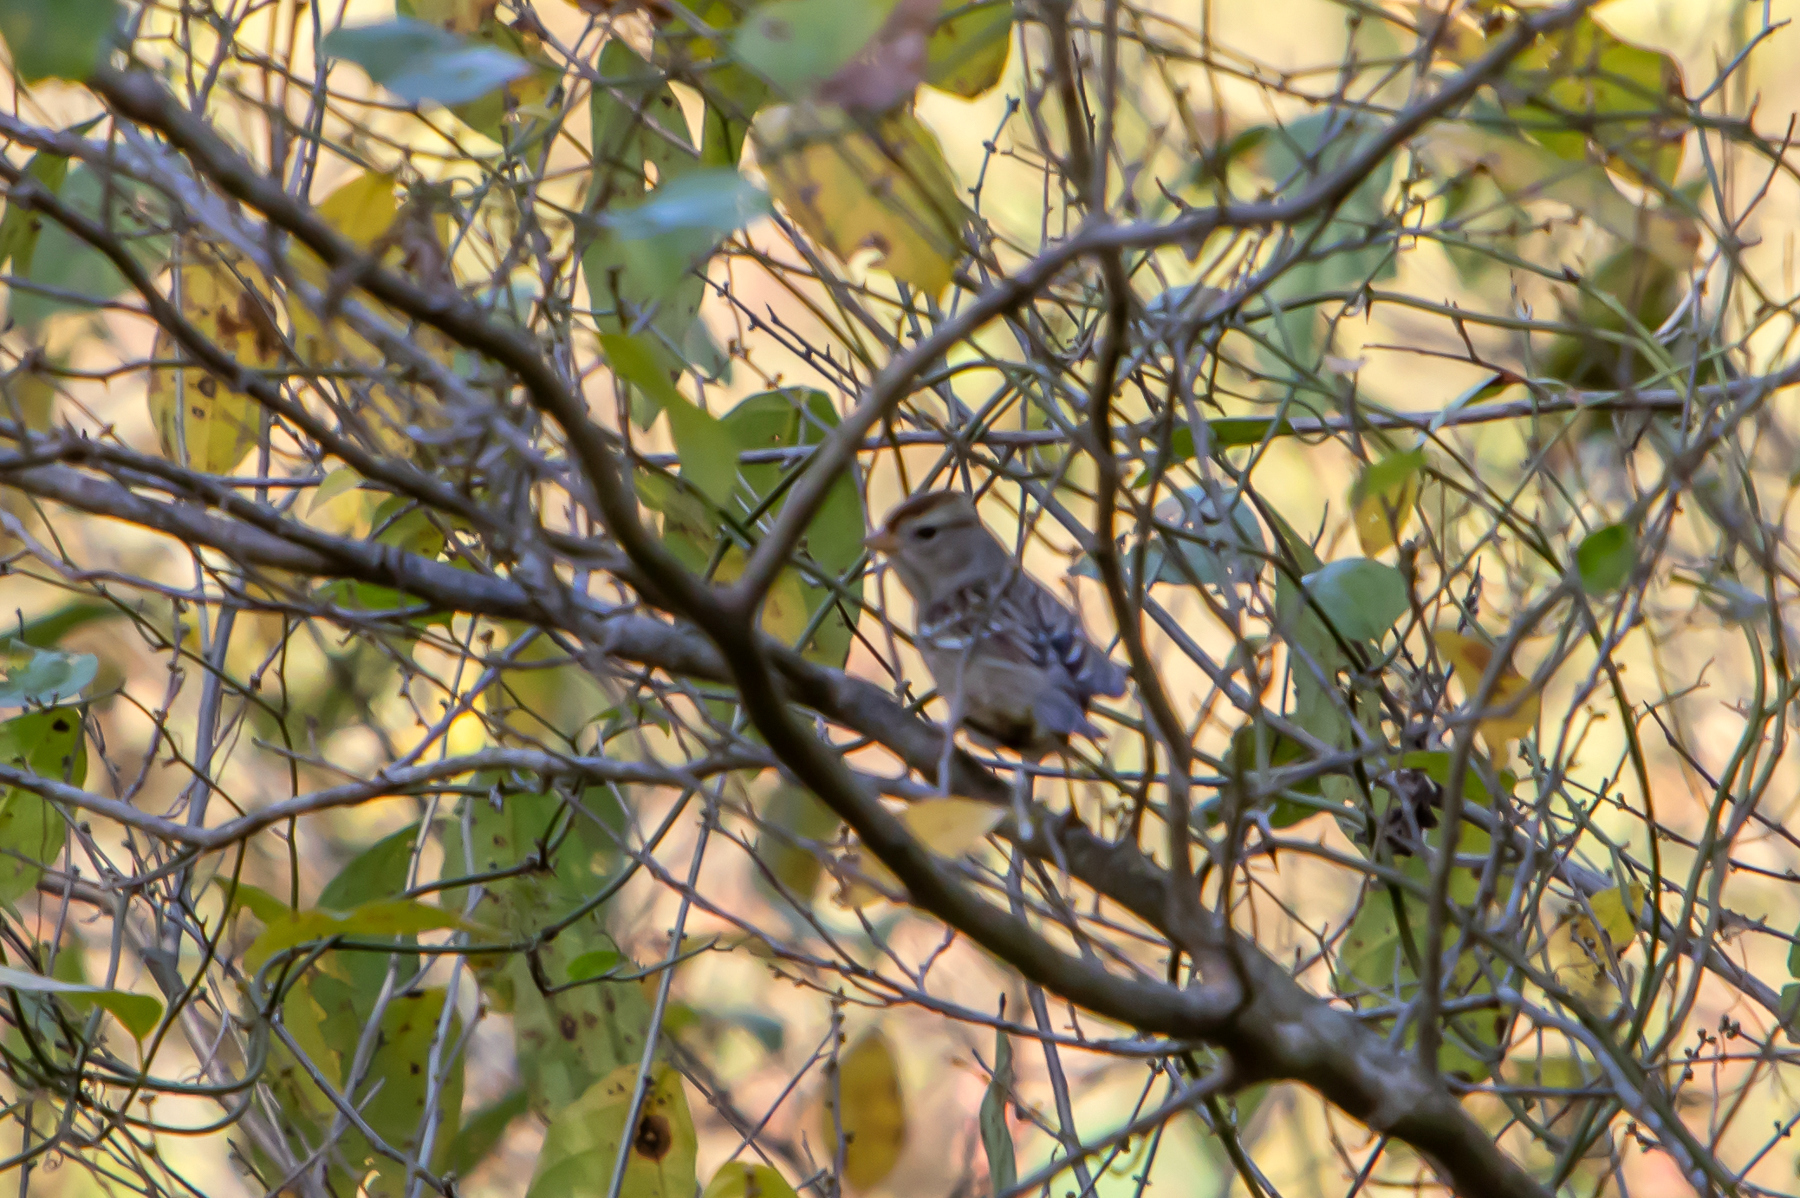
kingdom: Animalia
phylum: Chordata
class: Aves
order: Passeriformes
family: Passerellidae
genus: Zonotrichia
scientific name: Zonotrichia leucophrys
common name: White-crowned sparrow
